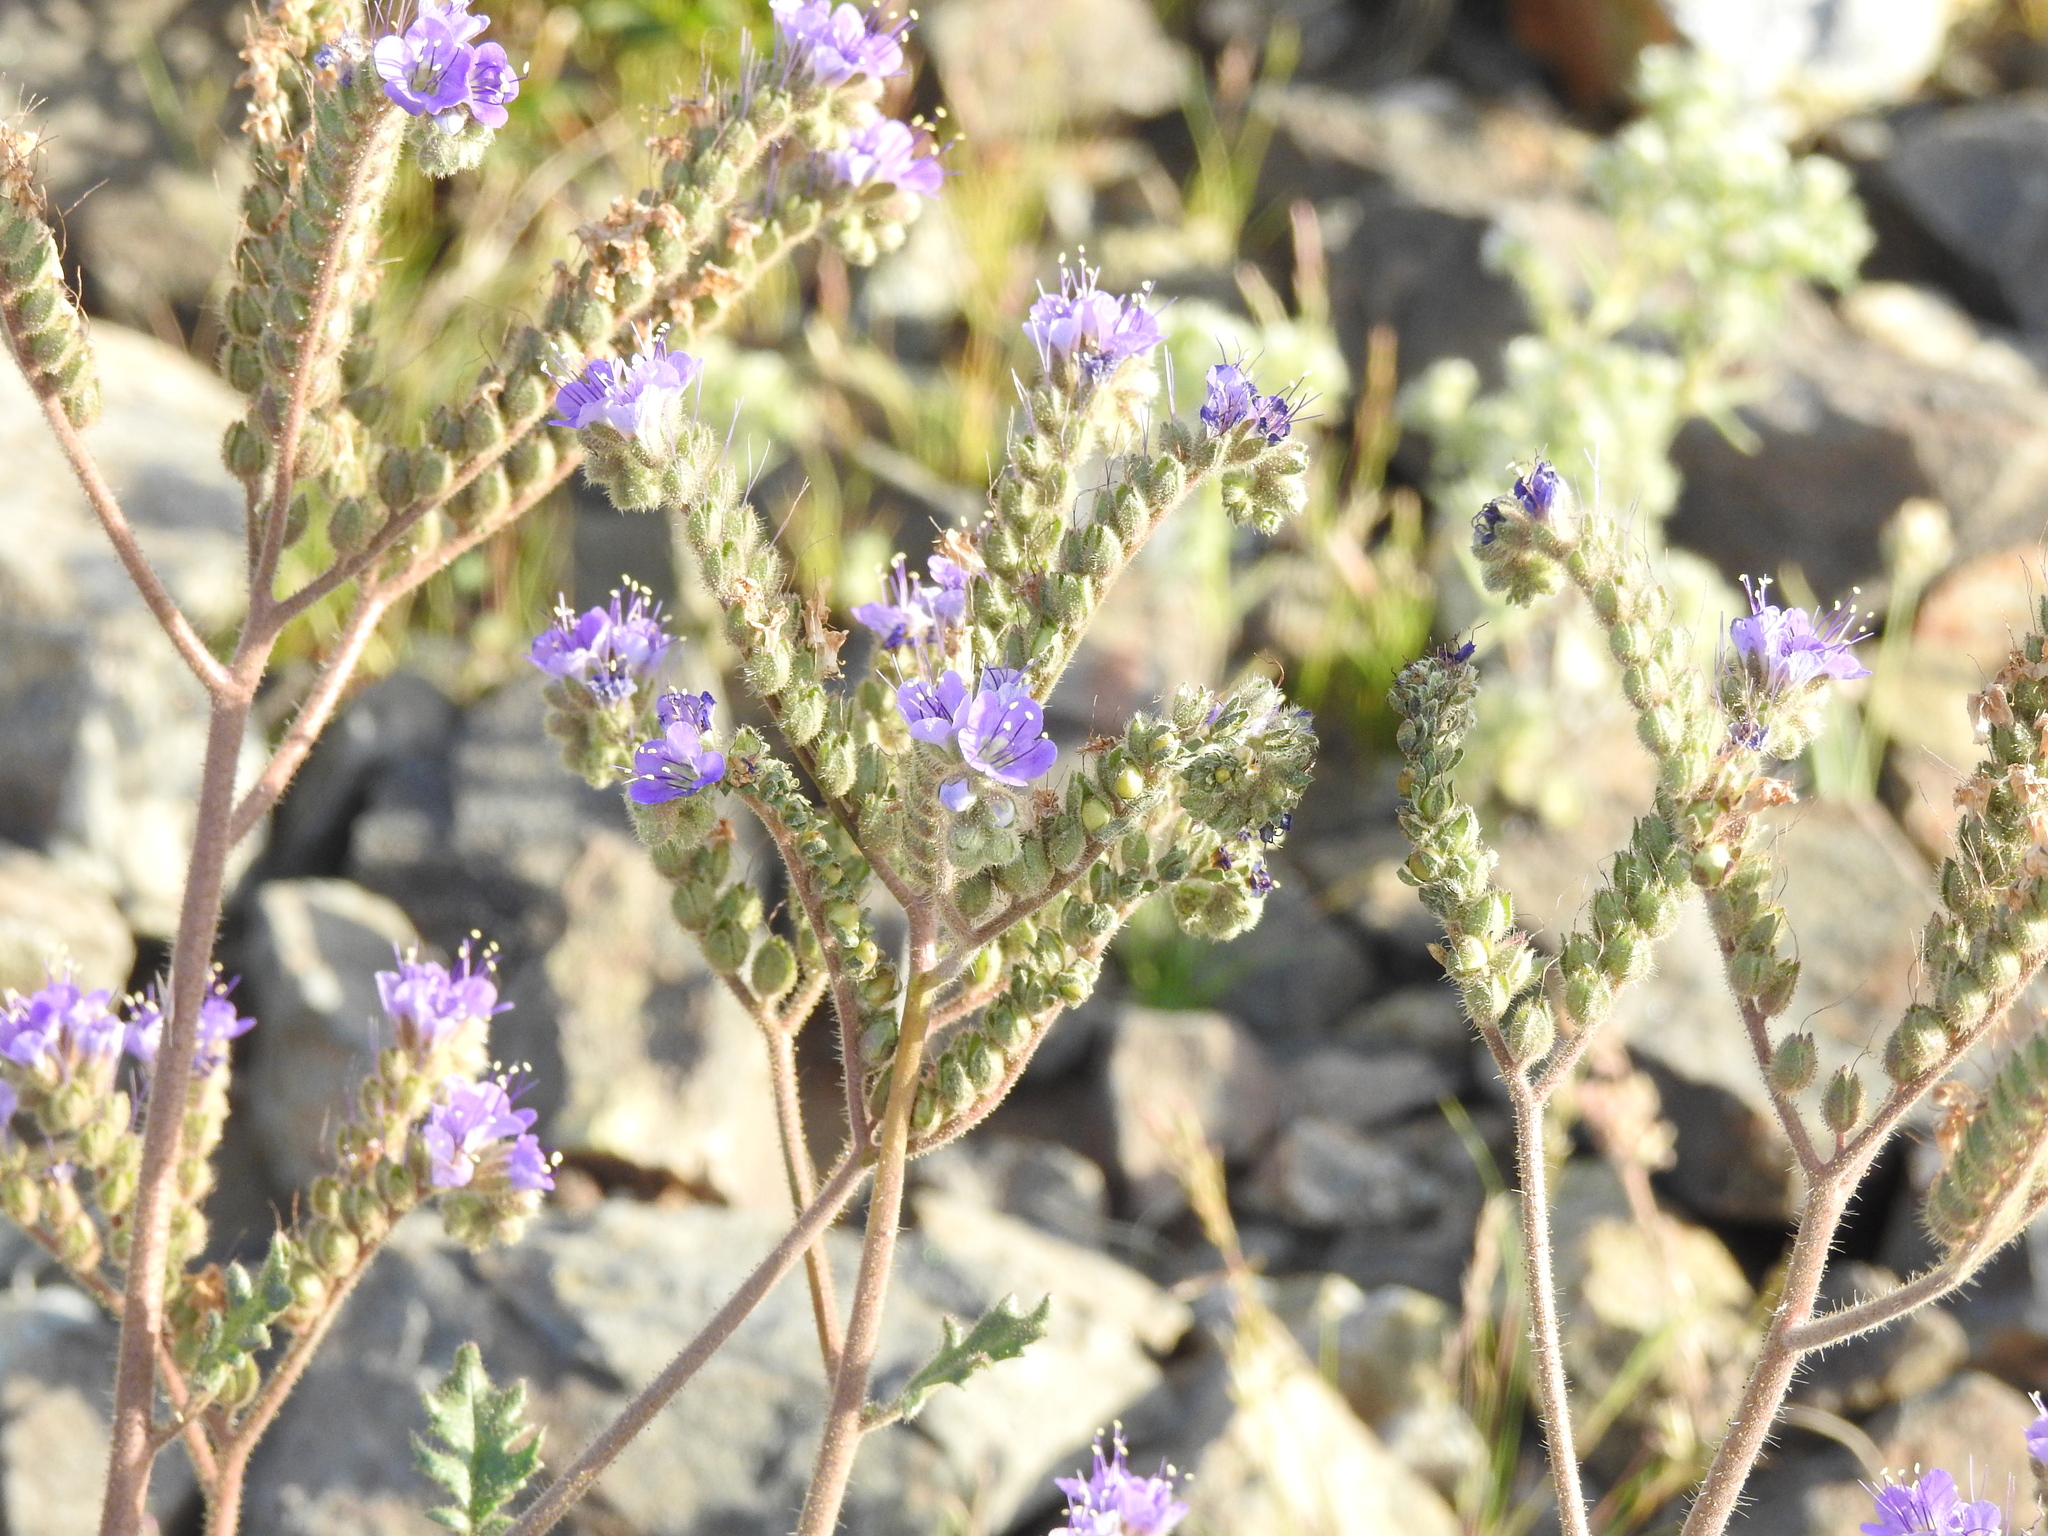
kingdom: Plantae
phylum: Tracheophyta
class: Magnoliopsida
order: Boraginales
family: Hydrophyllaceae
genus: Phacelia
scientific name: Phacelia crenulata
